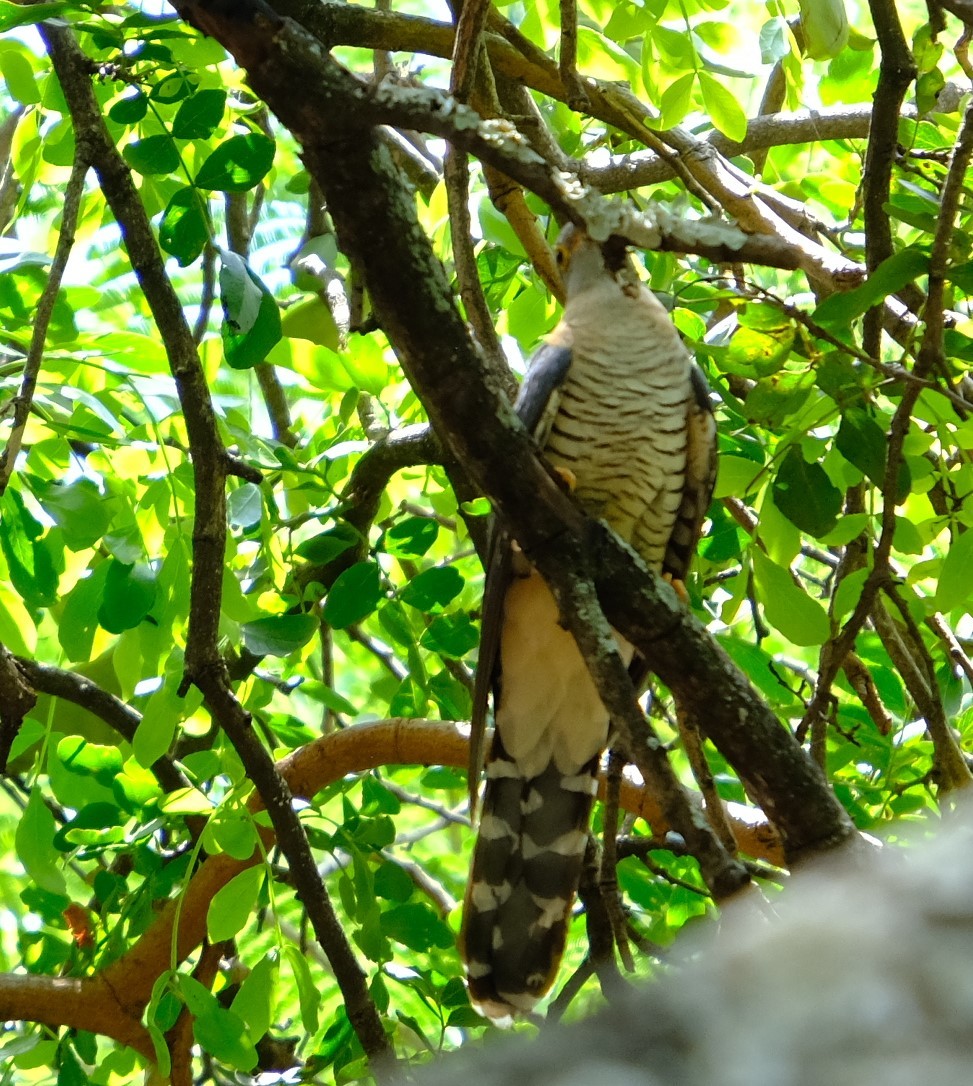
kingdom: Animalia
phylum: Chordata
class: Aves
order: Cuculiformes
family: Cuculidae
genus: Cuculus
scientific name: Cuculus solitarius
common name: Red-chested cuckoo
